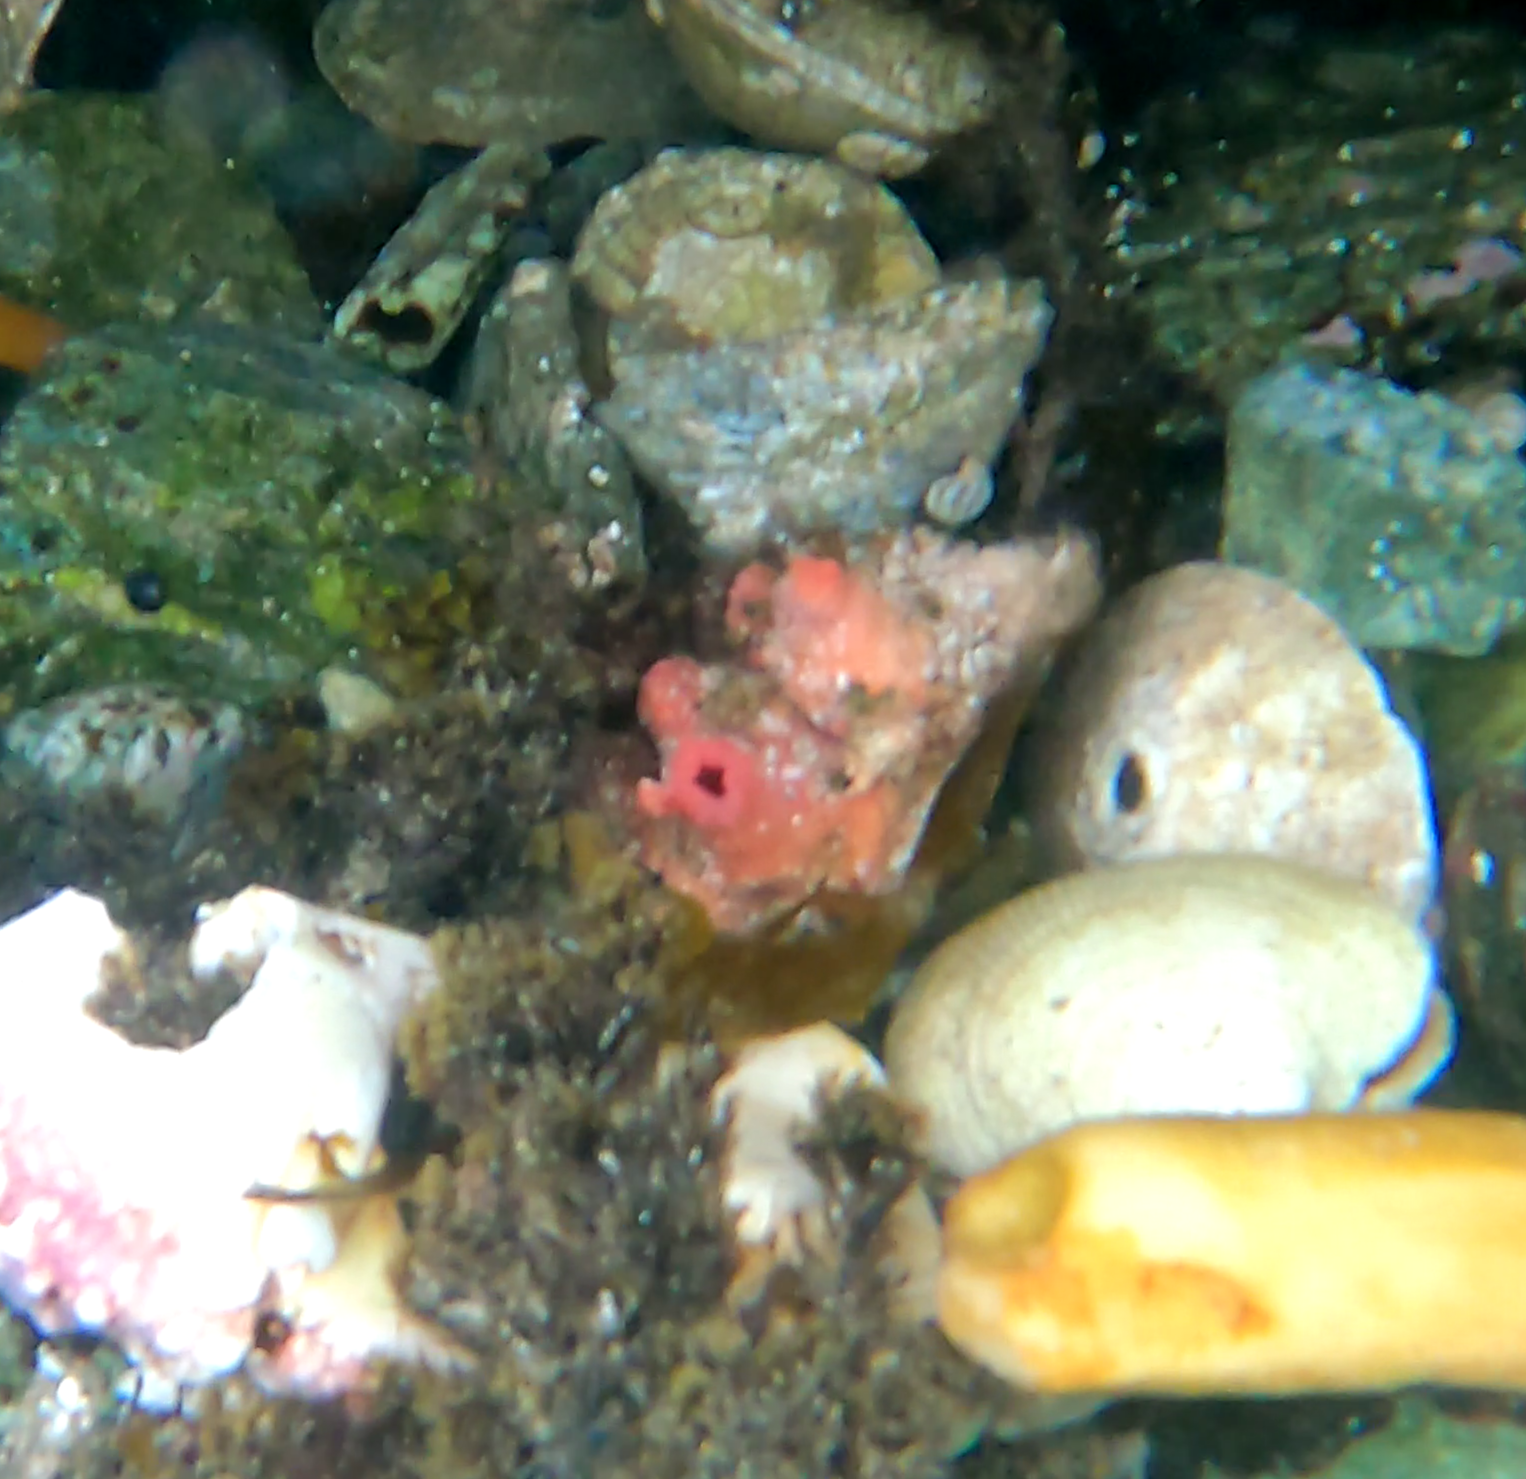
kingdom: Animalia
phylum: Chordata
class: Ascidiacea
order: Stolidobranchia
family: Pyuridae
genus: Pyura
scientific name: Pyura chilensis
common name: Red sea squirt
